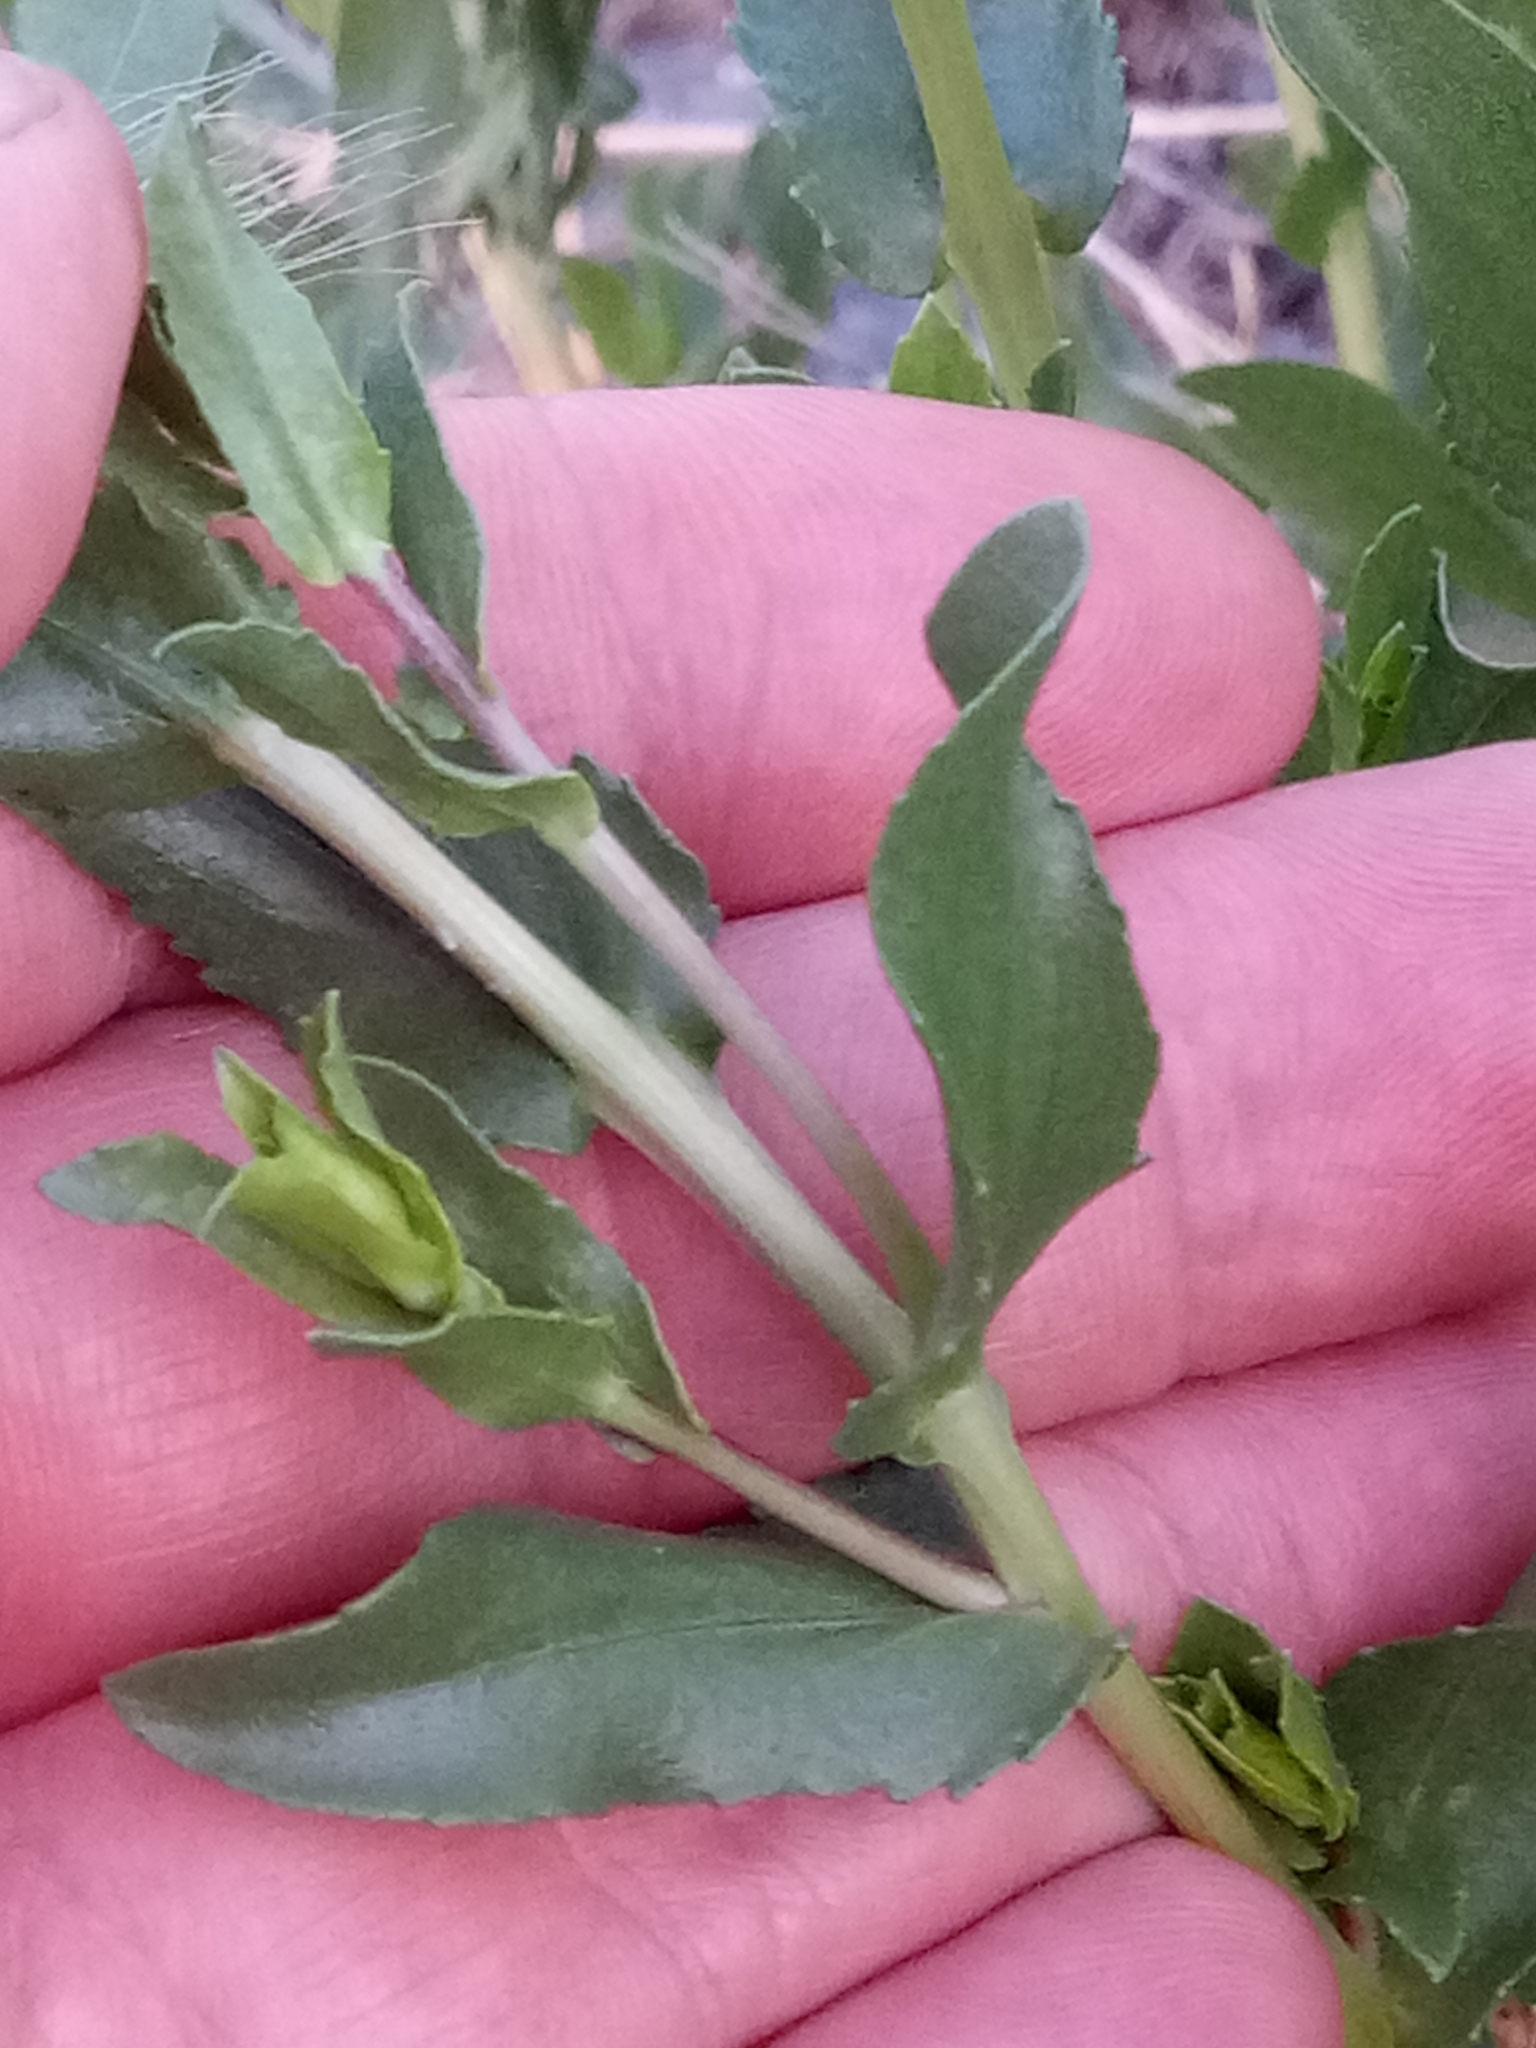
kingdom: Plantae
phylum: Tracheophyta
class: Magnoliopsida
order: Asterales
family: Asteraceae
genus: Grindelia
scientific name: Grindelia squarrosa
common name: Curly-cup gumweed
